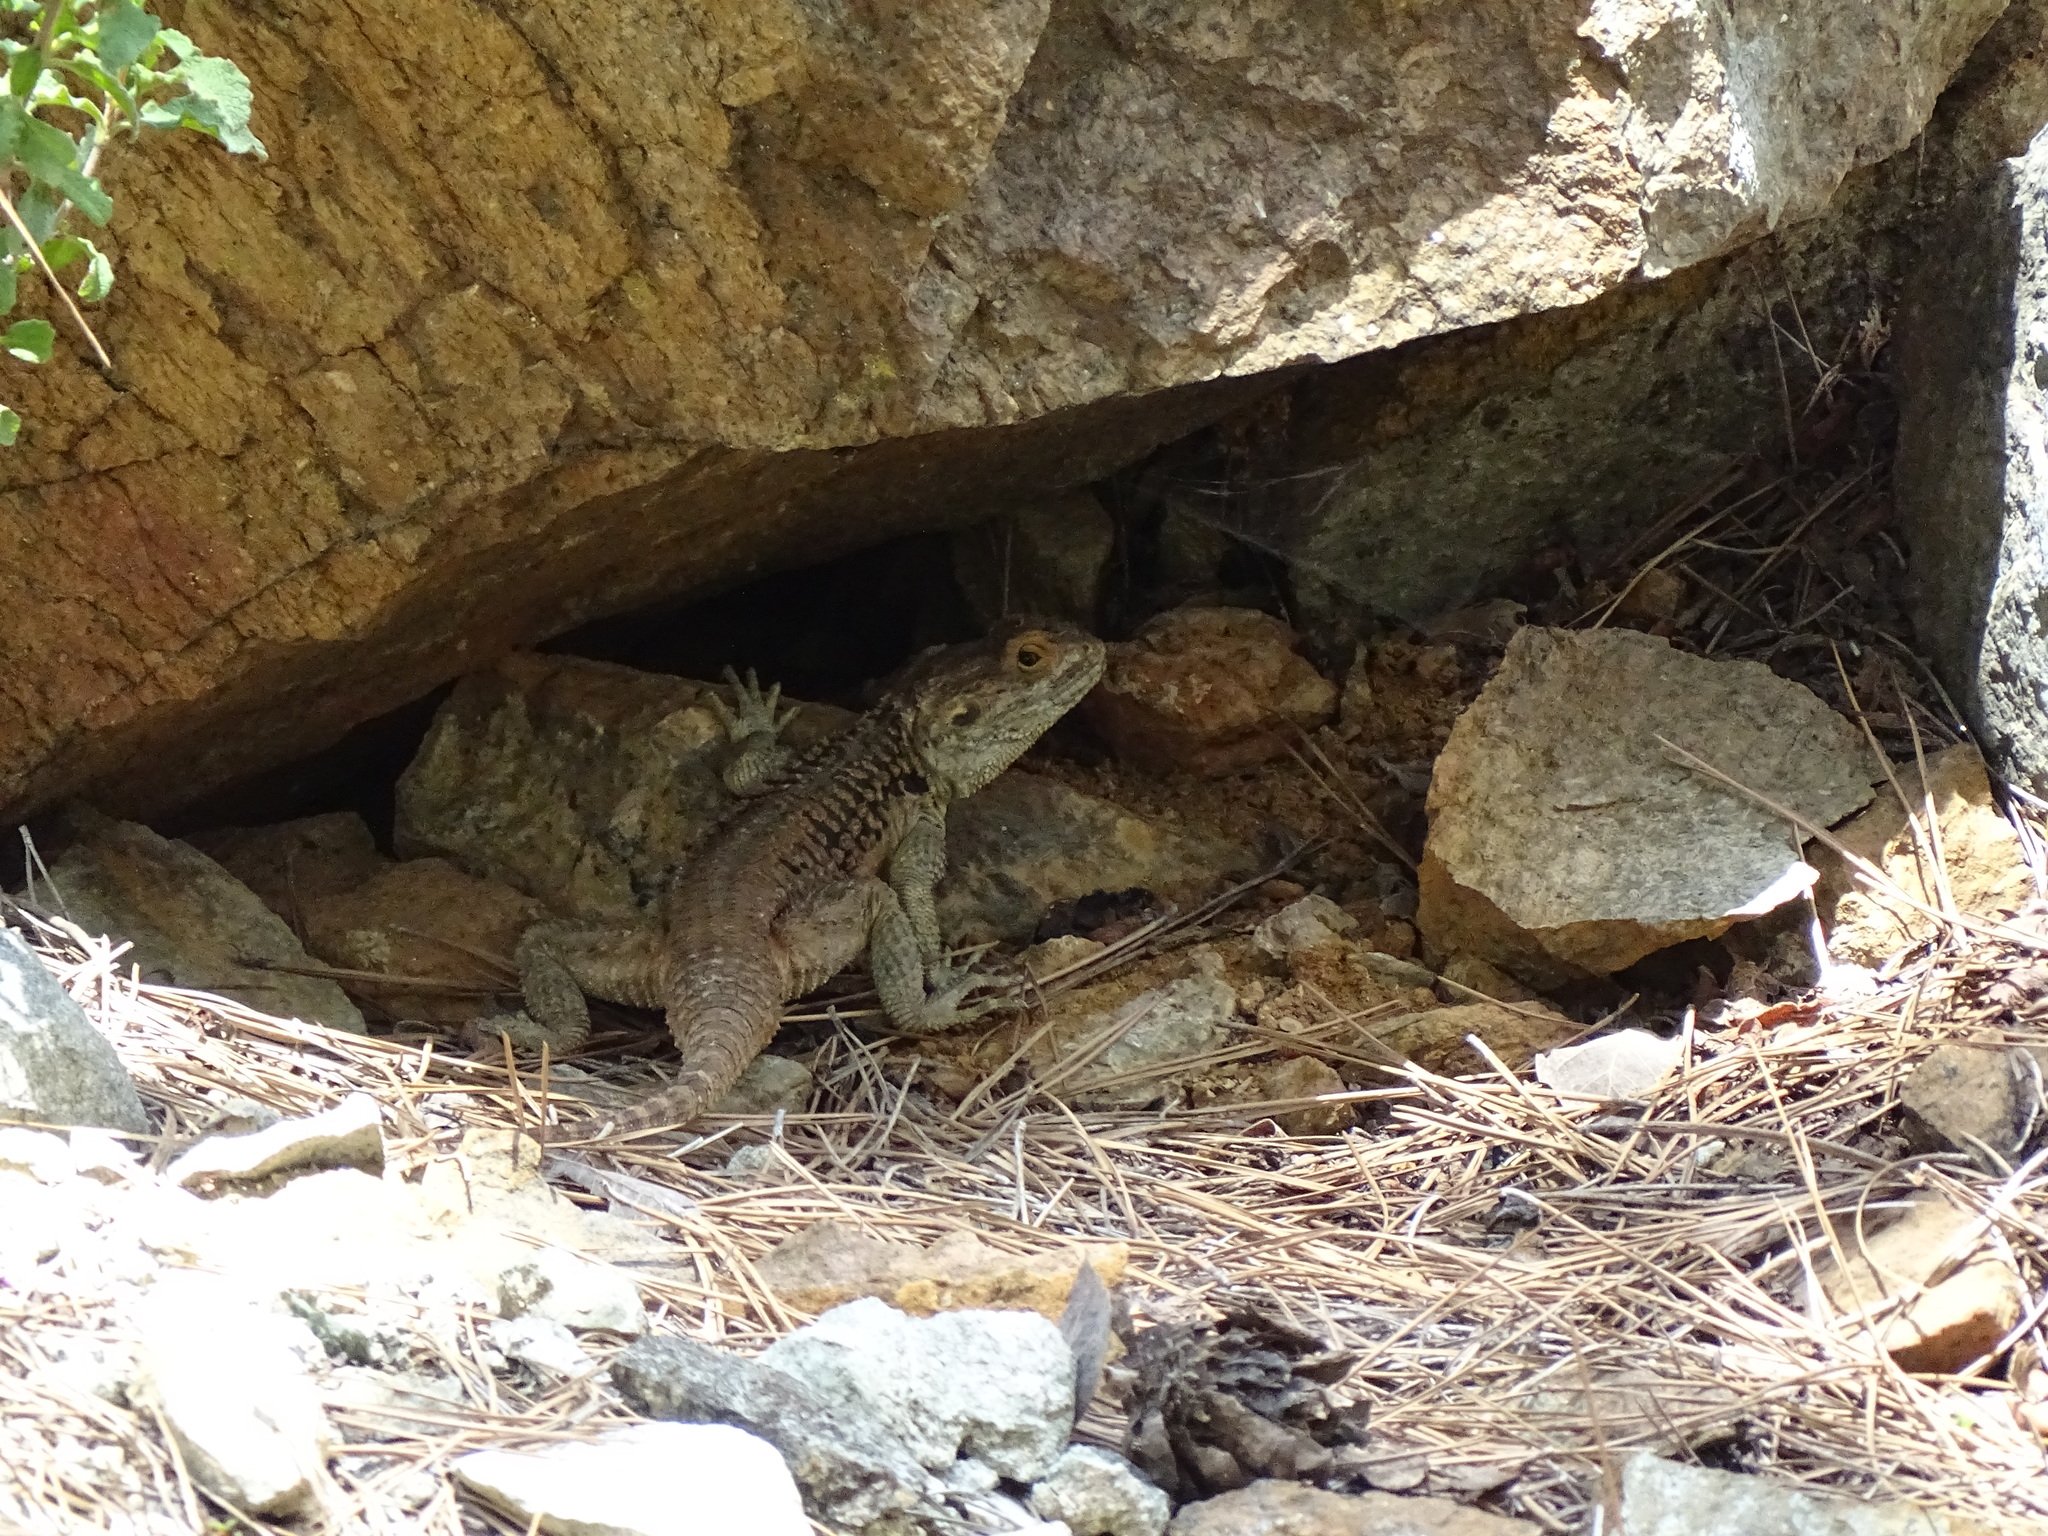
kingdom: Animalia
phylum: Chordata
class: Squamata
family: Agamidae
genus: Laudakia
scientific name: Laudakia
